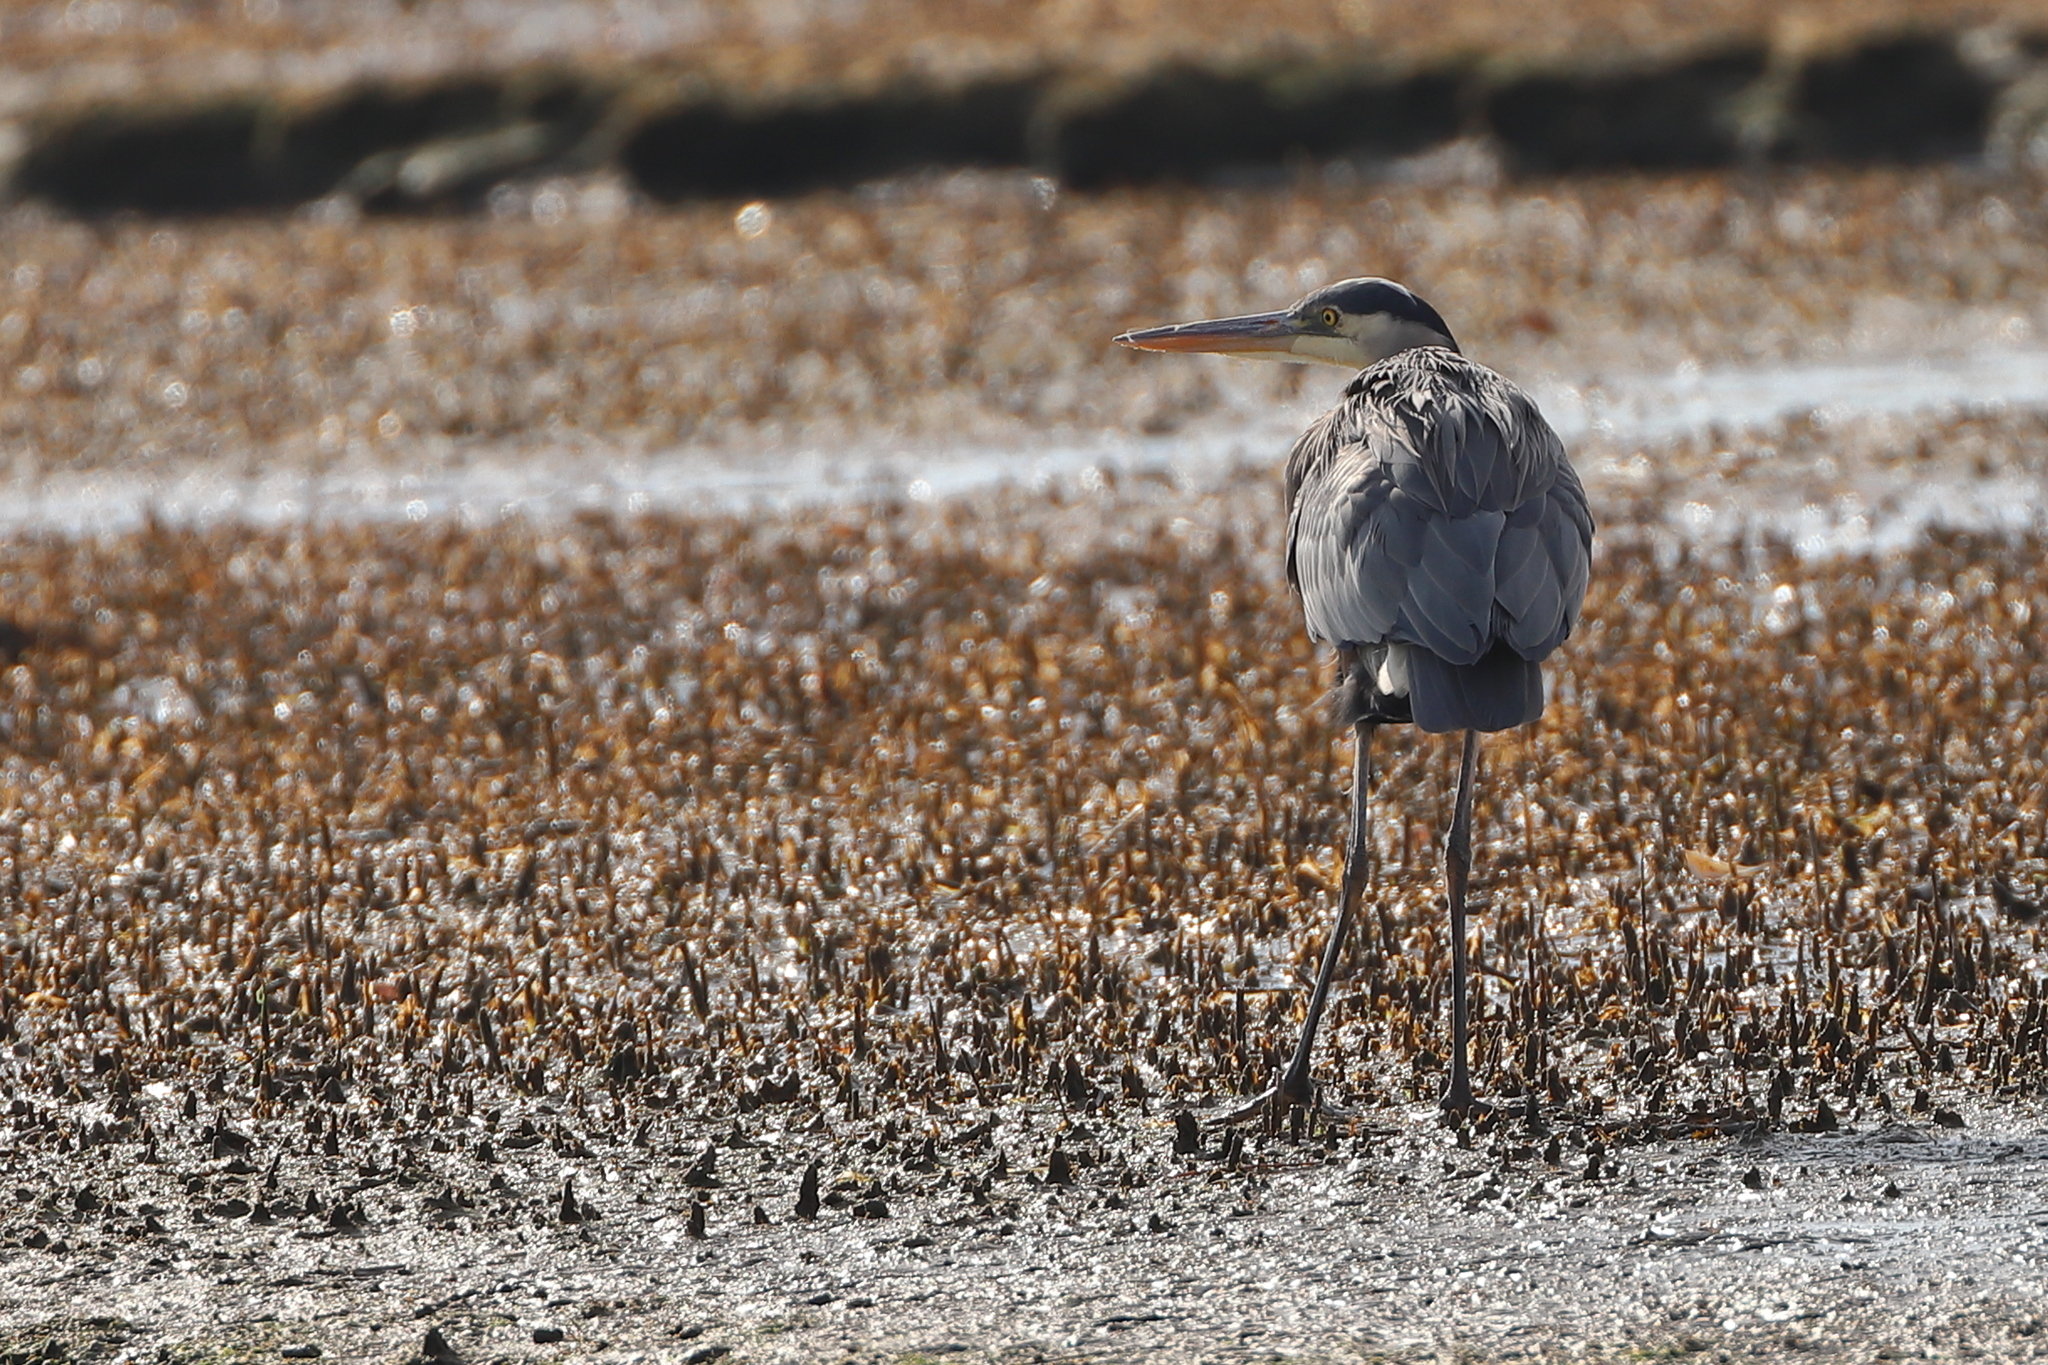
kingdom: Animalia
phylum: Chordata
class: Aves
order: Pelecaniformes
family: Ardeidae
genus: Ardea
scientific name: Ardea herodias
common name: Great blue heron
